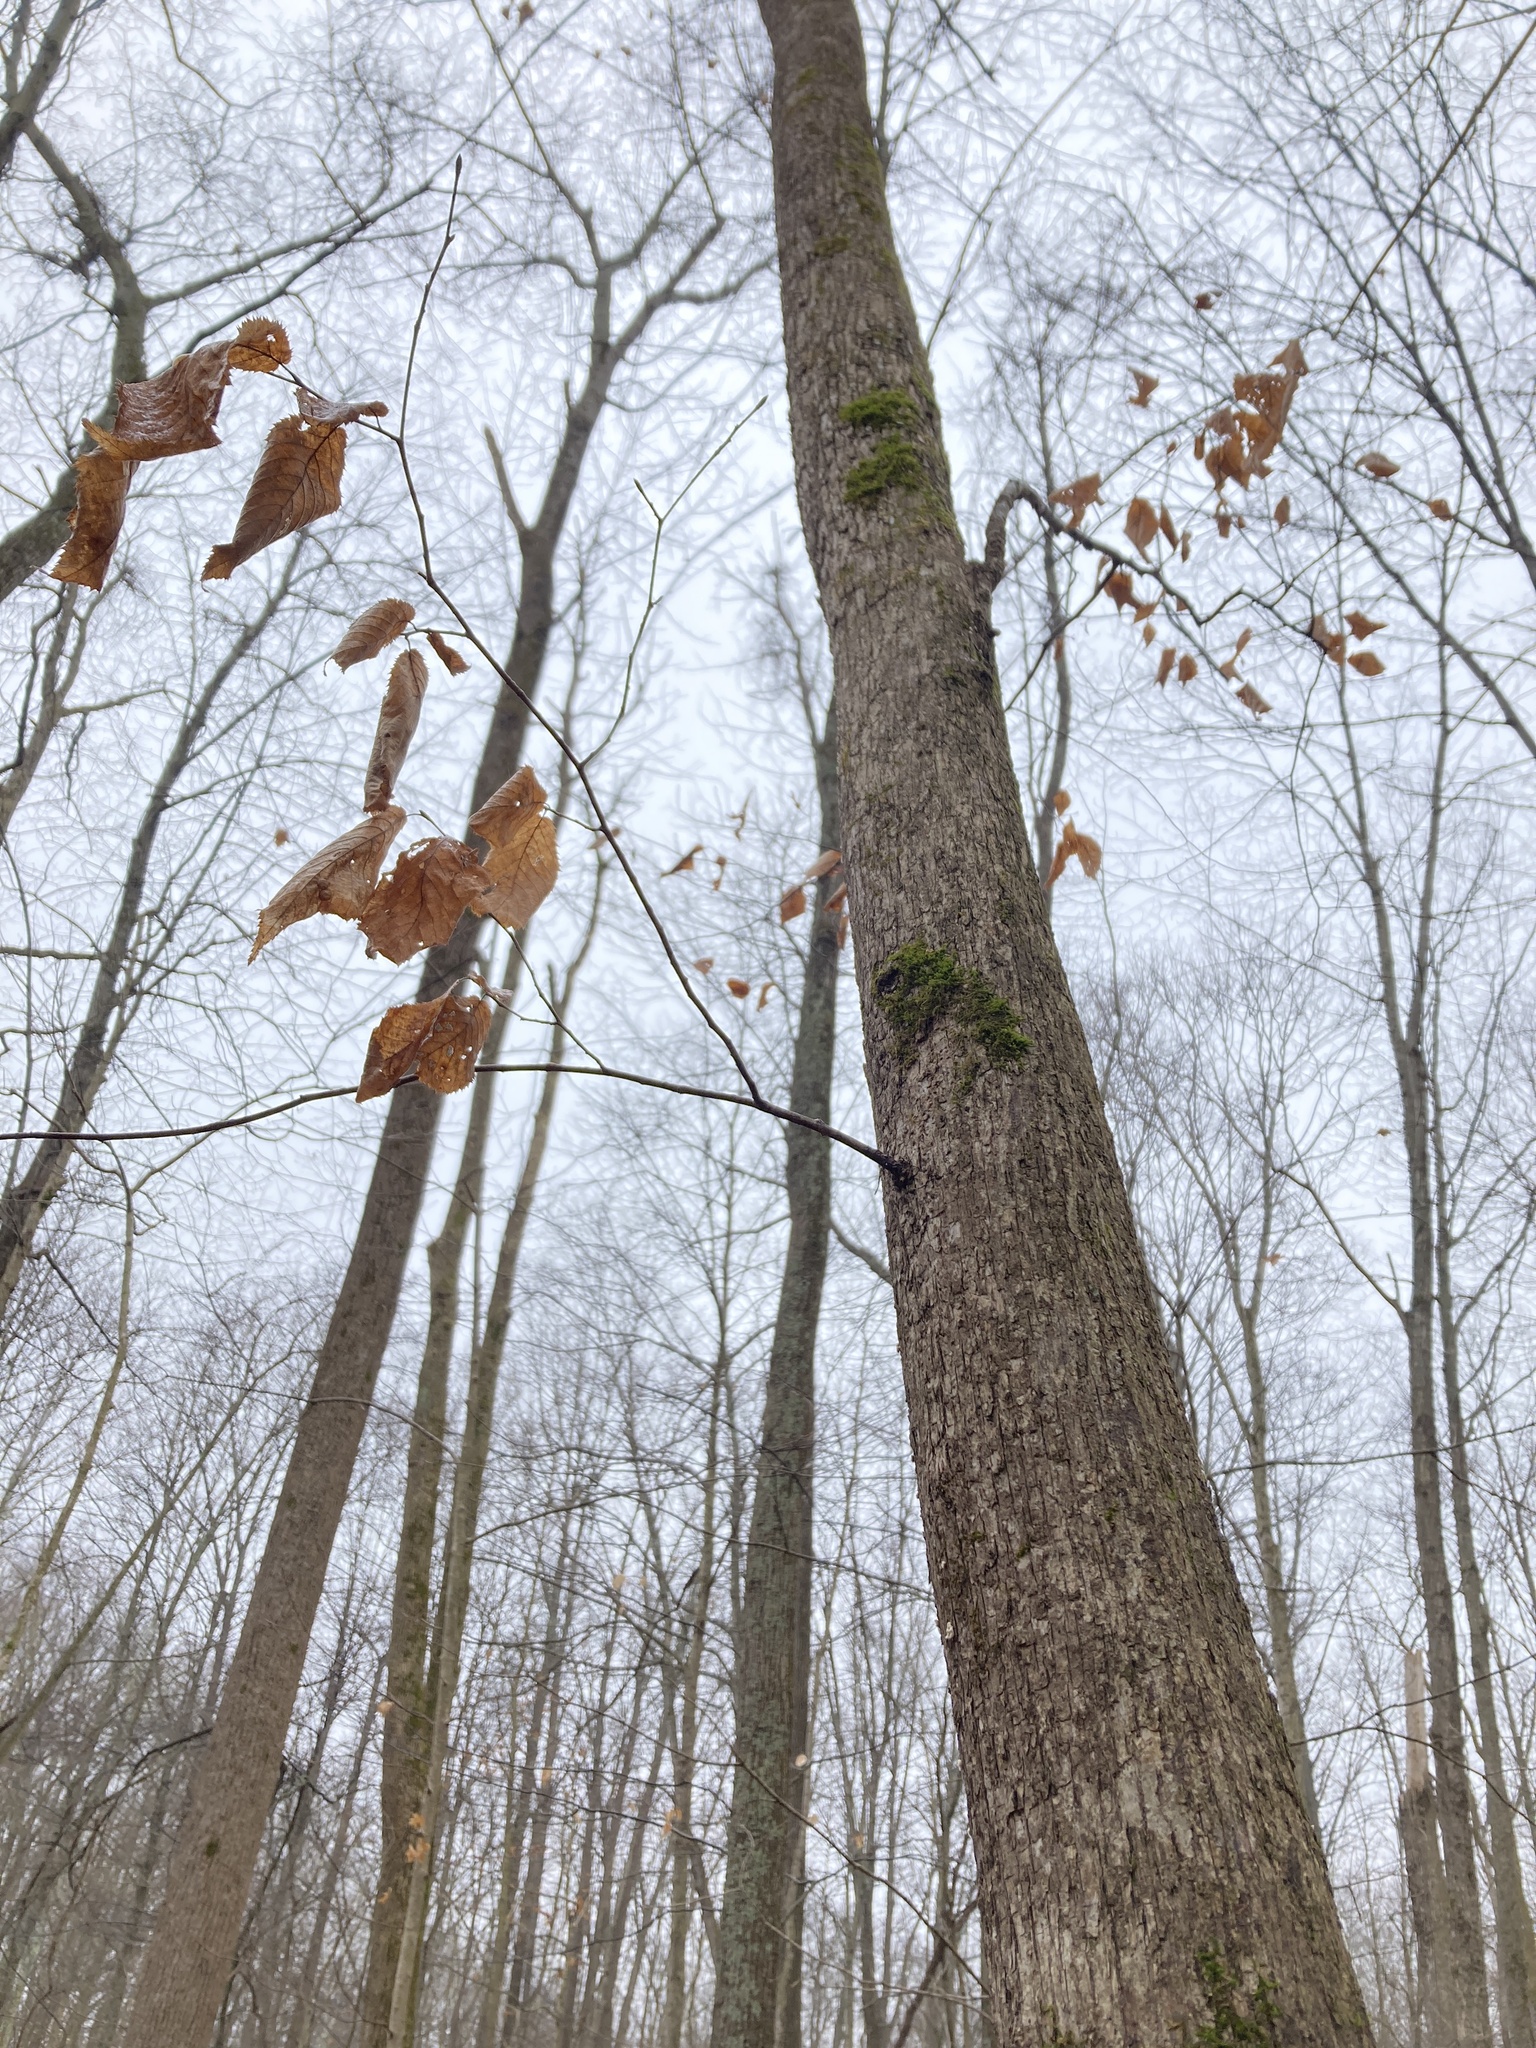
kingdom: Plantae
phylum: Tracheophyta
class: Magnoliopsida
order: Fagales
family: Betulaceae
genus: Ostrya
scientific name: Ostrya virginiana
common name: Ironwood
